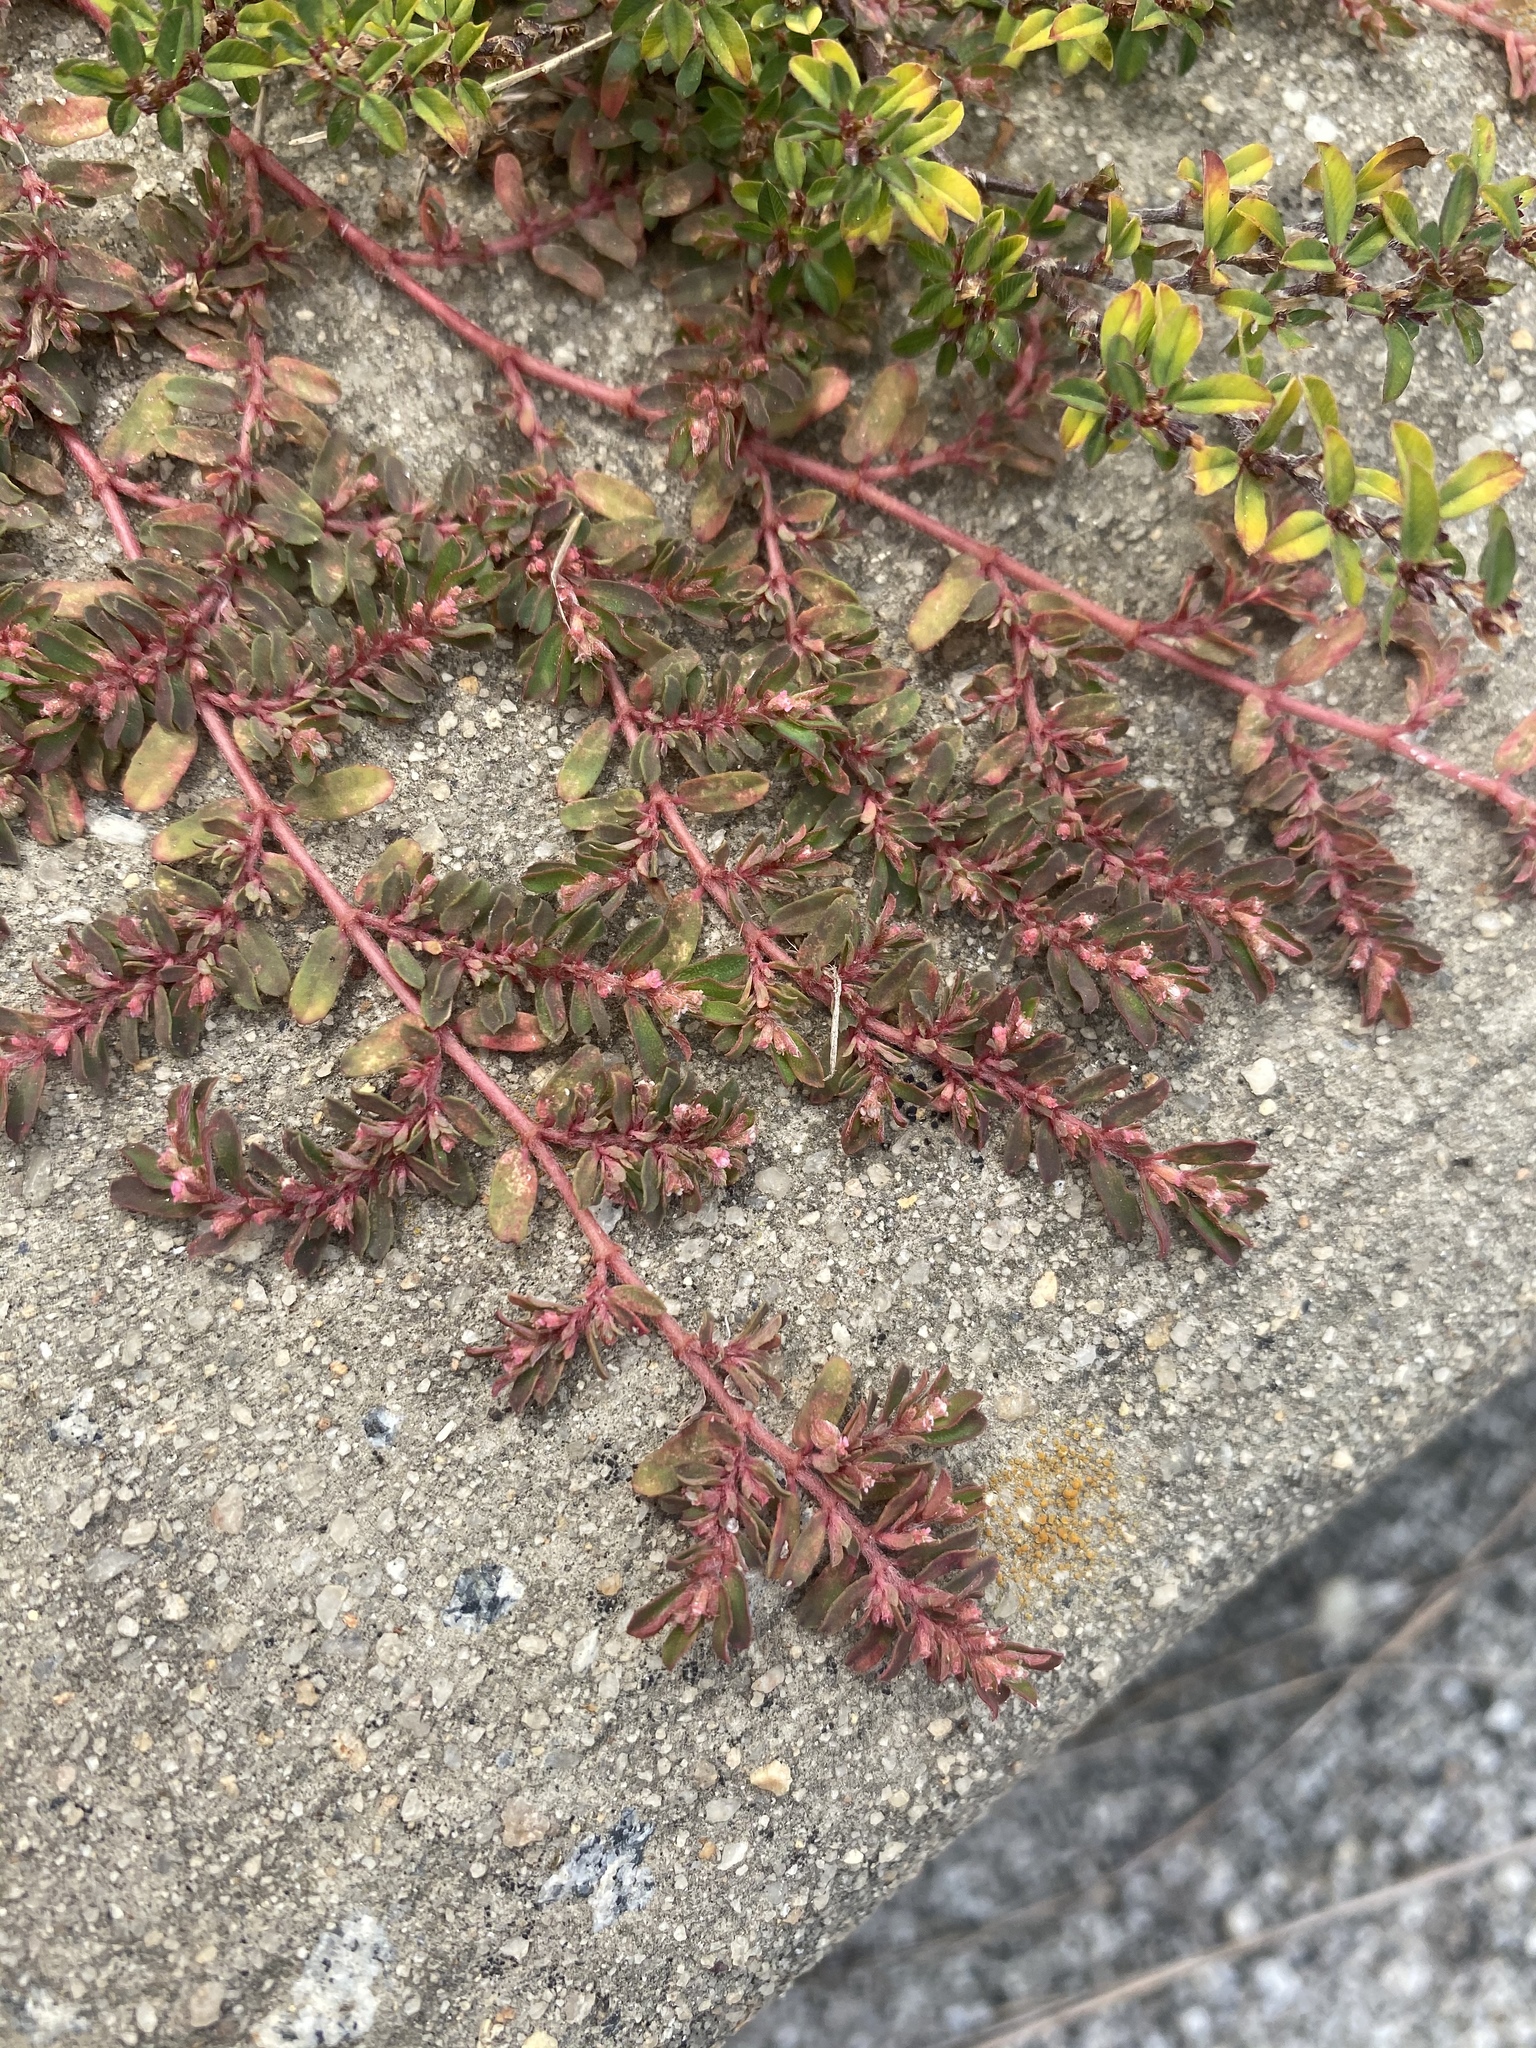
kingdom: Plantae
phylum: Tracheophyta
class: Magnoliopsida
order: Malpighiales
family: Euphorbiaceae
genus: Euphorbia
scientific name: Euphorbia maculata
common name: Spotted spurge
